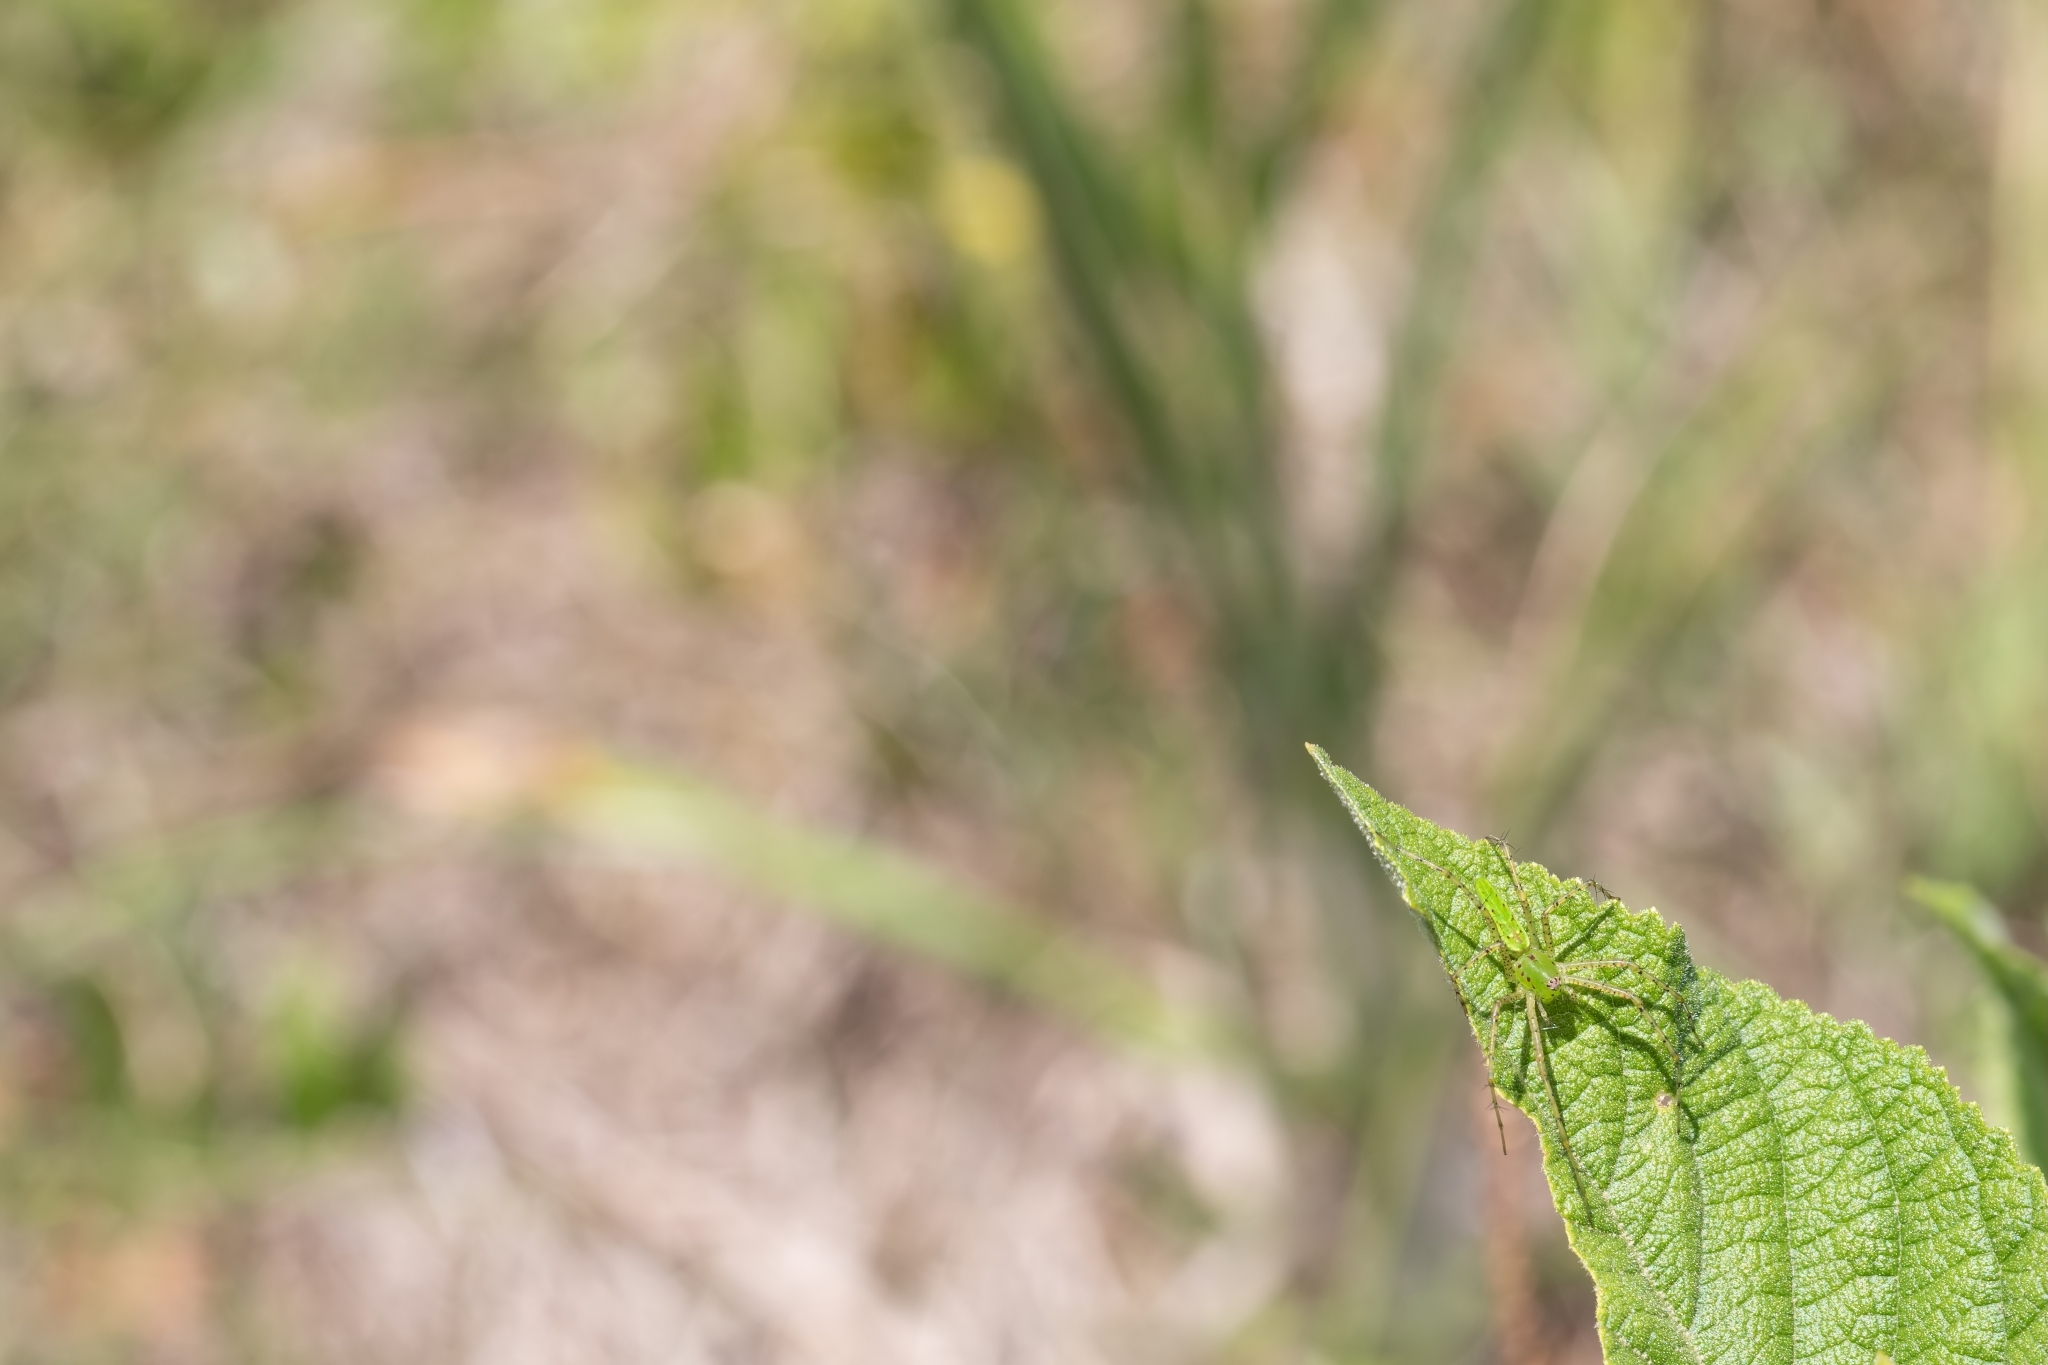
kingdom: Animalia
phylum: Arthropoda
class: Arachnida
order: Araneae
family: Oxyopidae
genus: Peucetia
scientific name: Peucetia viridans
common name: Lynx spiders
